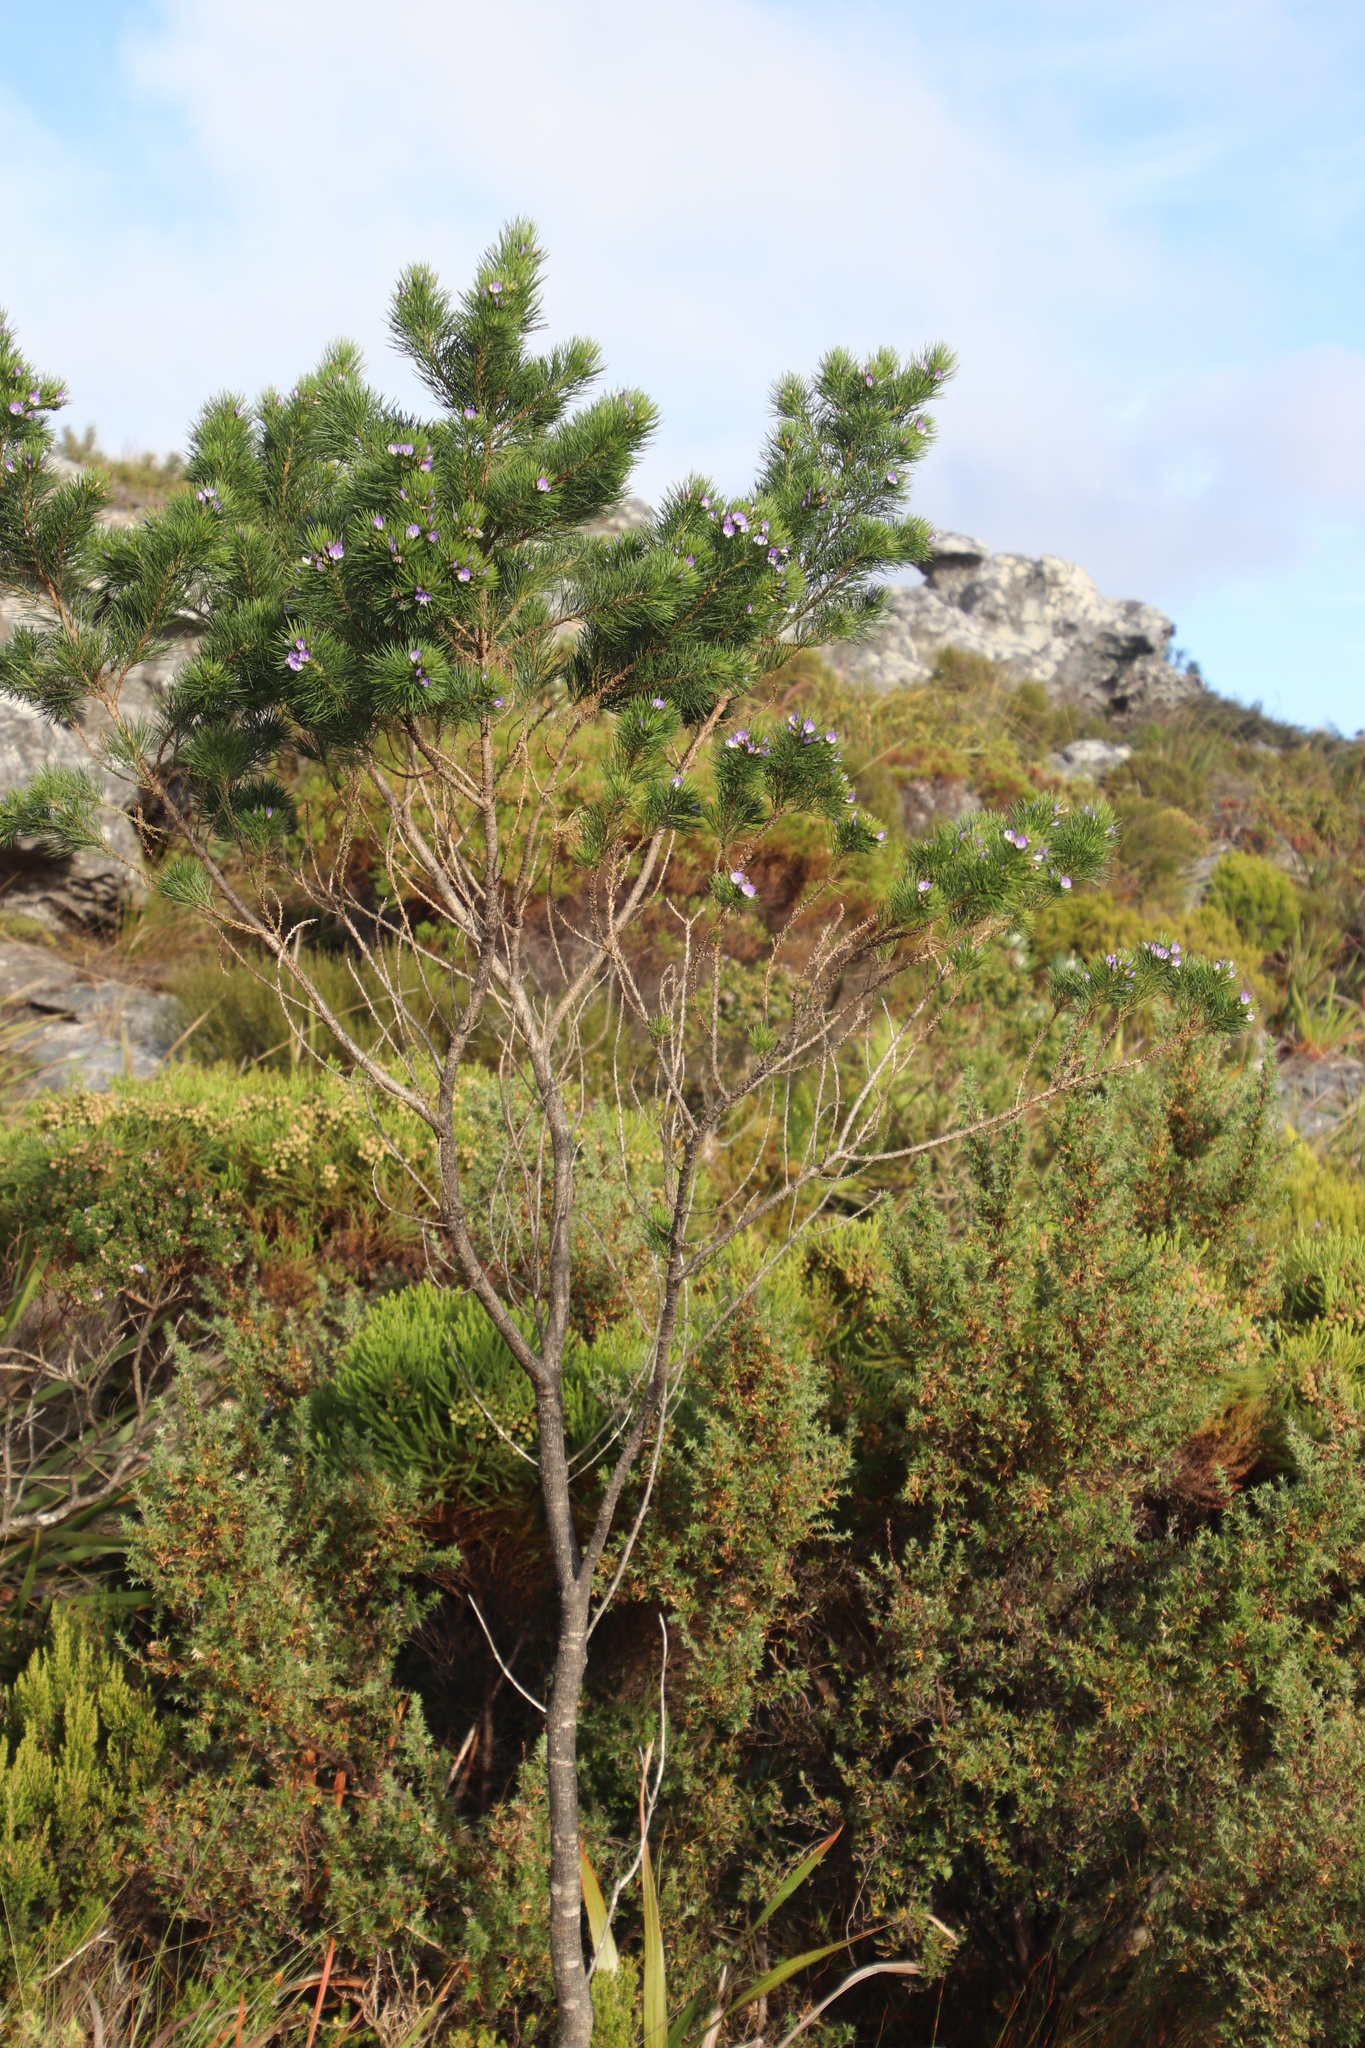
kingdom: Plantae
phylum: Tracheophyta
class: Magnoliopsida
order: Fabales
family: Fabaceae
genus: Psoralea
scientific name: Psoralea pinnata
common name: African scurfpea
